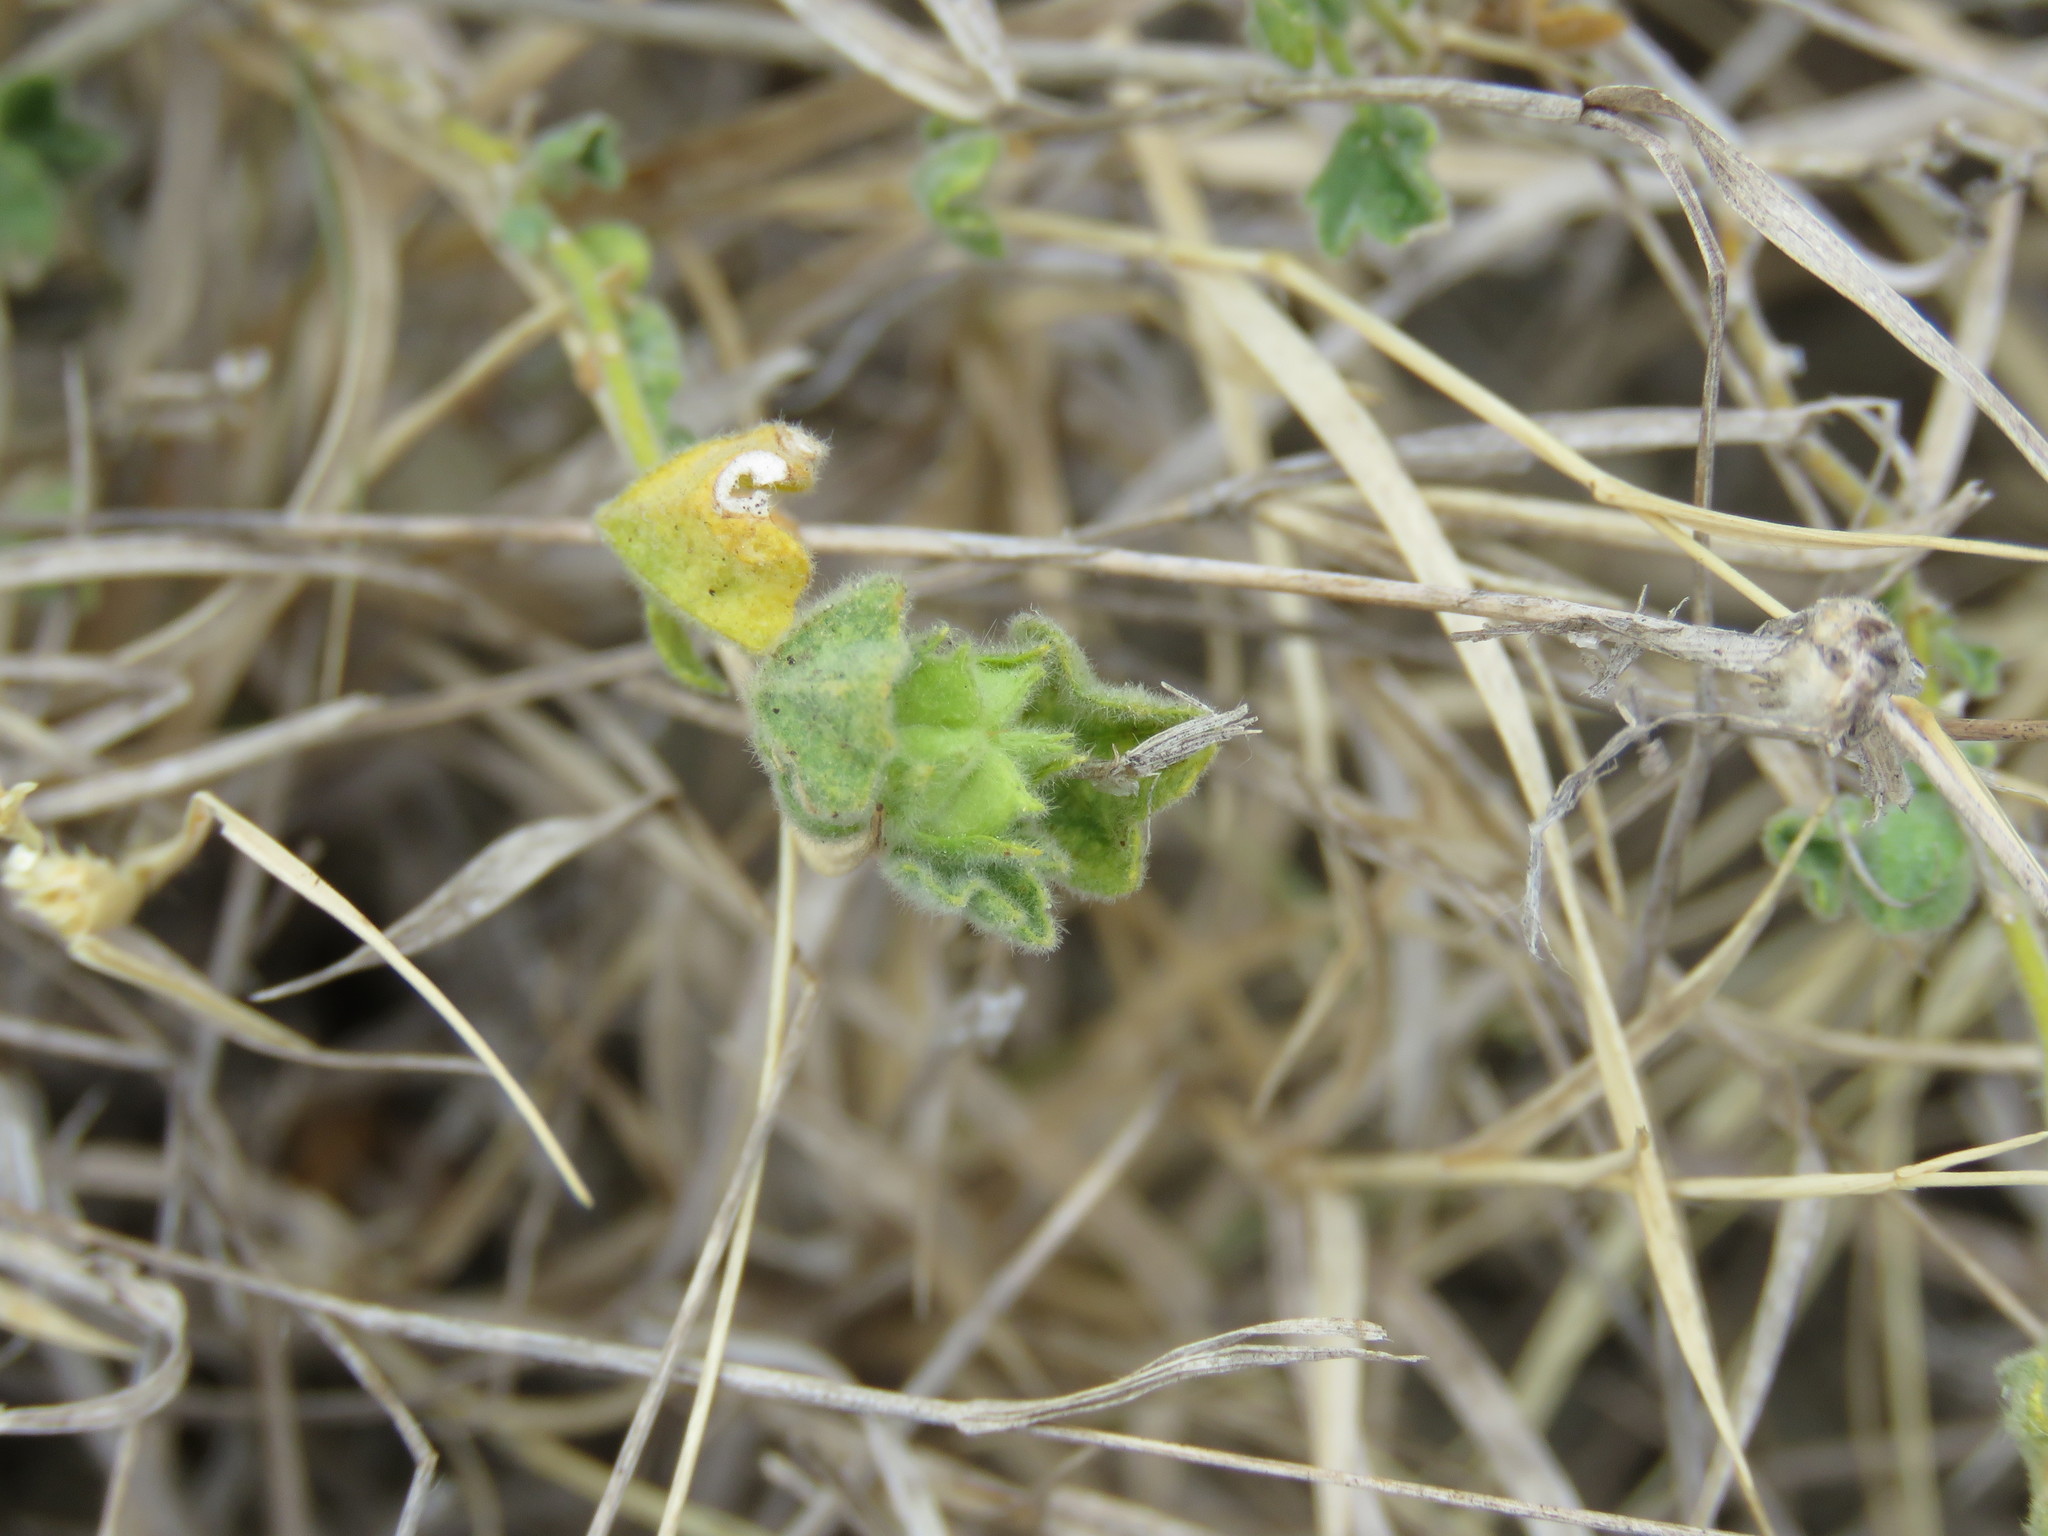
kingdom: Plantae
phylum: Tracheophyta
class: Magnoliopsida
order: Malvales
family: Malvaceae
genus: Billieturnera
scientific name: Billieturnera helleri
